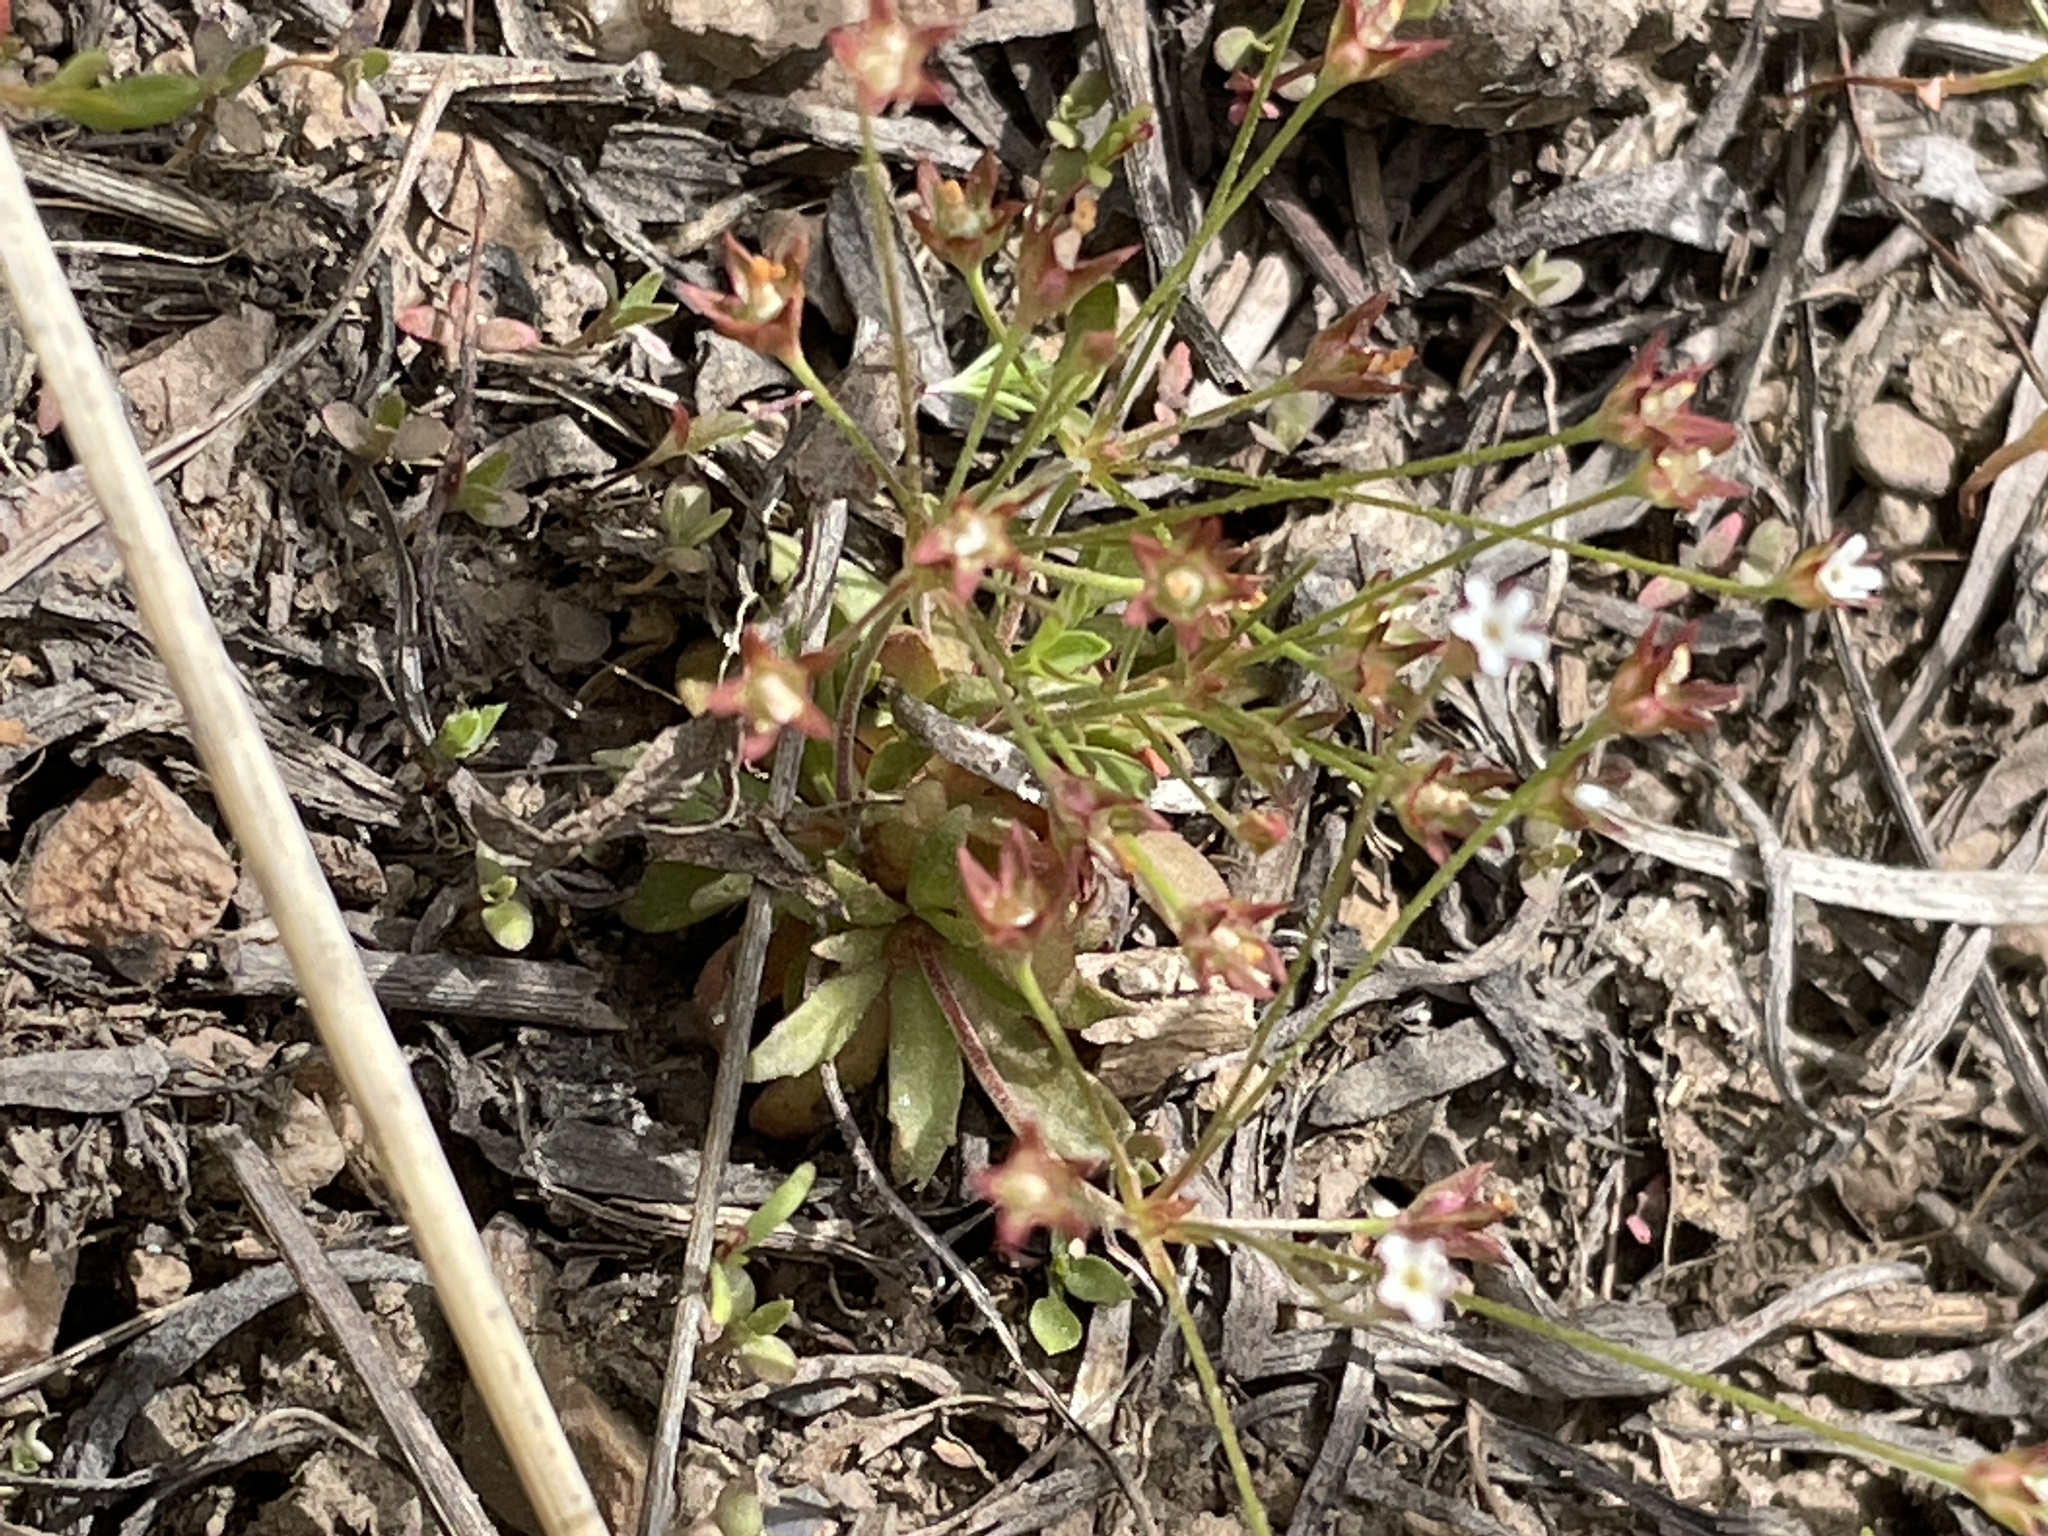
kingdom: Plantae
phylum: Tracheophyta
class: Magnoliopsida
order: Ericales
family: Primulaceae
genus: Androsace
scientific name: Androsace septentrionalis
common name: Hairy northern fairy-candelabra
